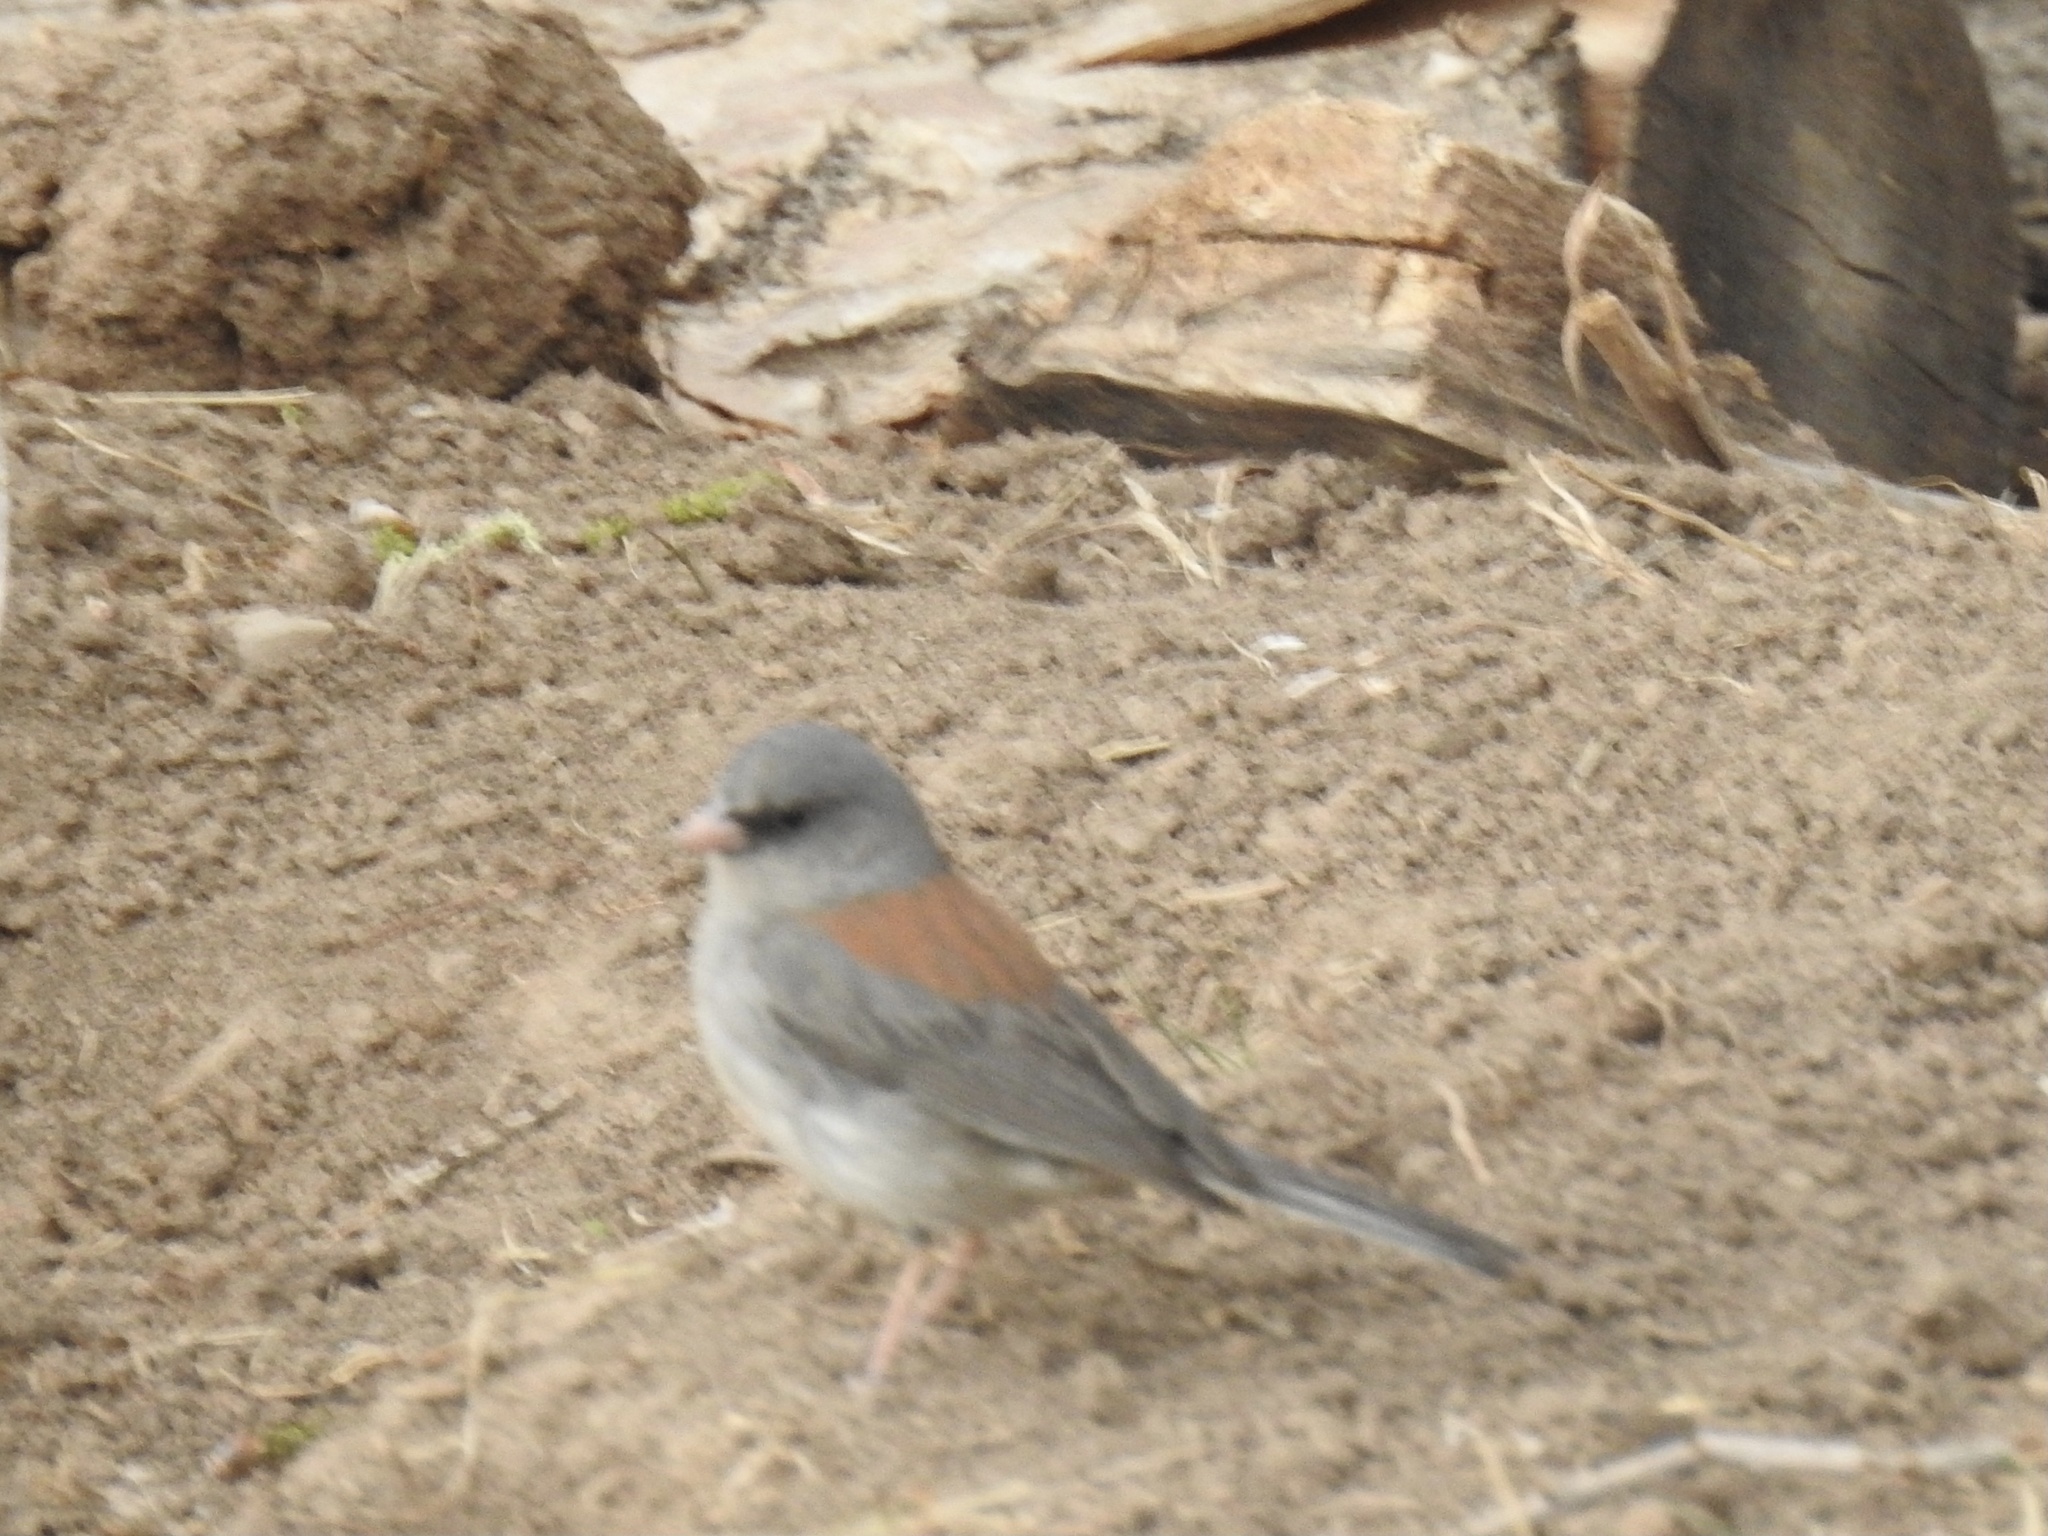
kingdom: Animalia
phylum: Chordata
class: Aves
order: Passeriformes
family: Passerellidae
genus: Junco
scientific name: Junco hyemalis
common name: Dark-eyed junco
